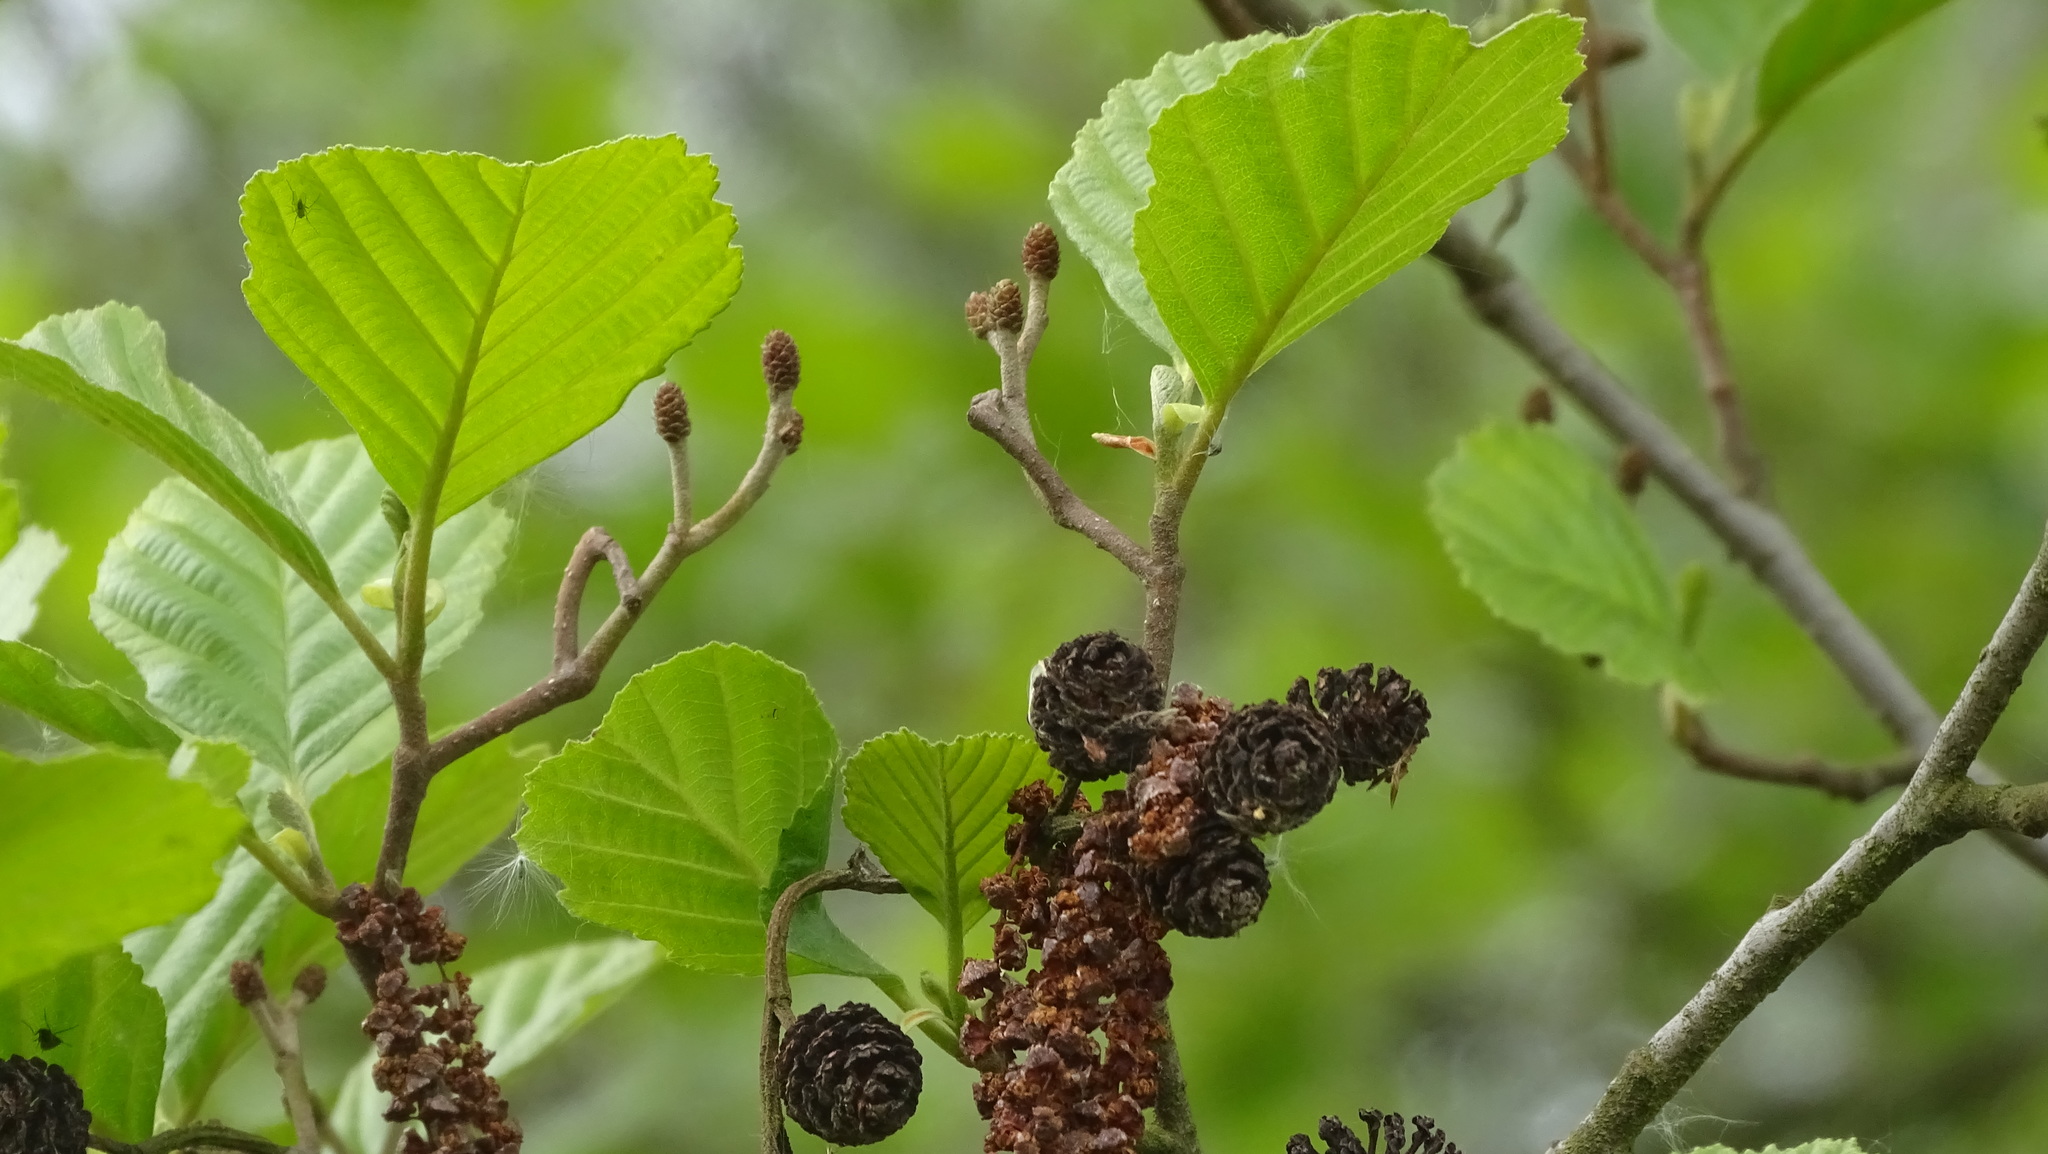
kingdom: Plantae
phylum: Tracheophyta
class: Magnoliopsida
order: Fagales
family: Betulaceae
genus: Alnus
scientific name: Alnus glutinosa
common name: Black alder
